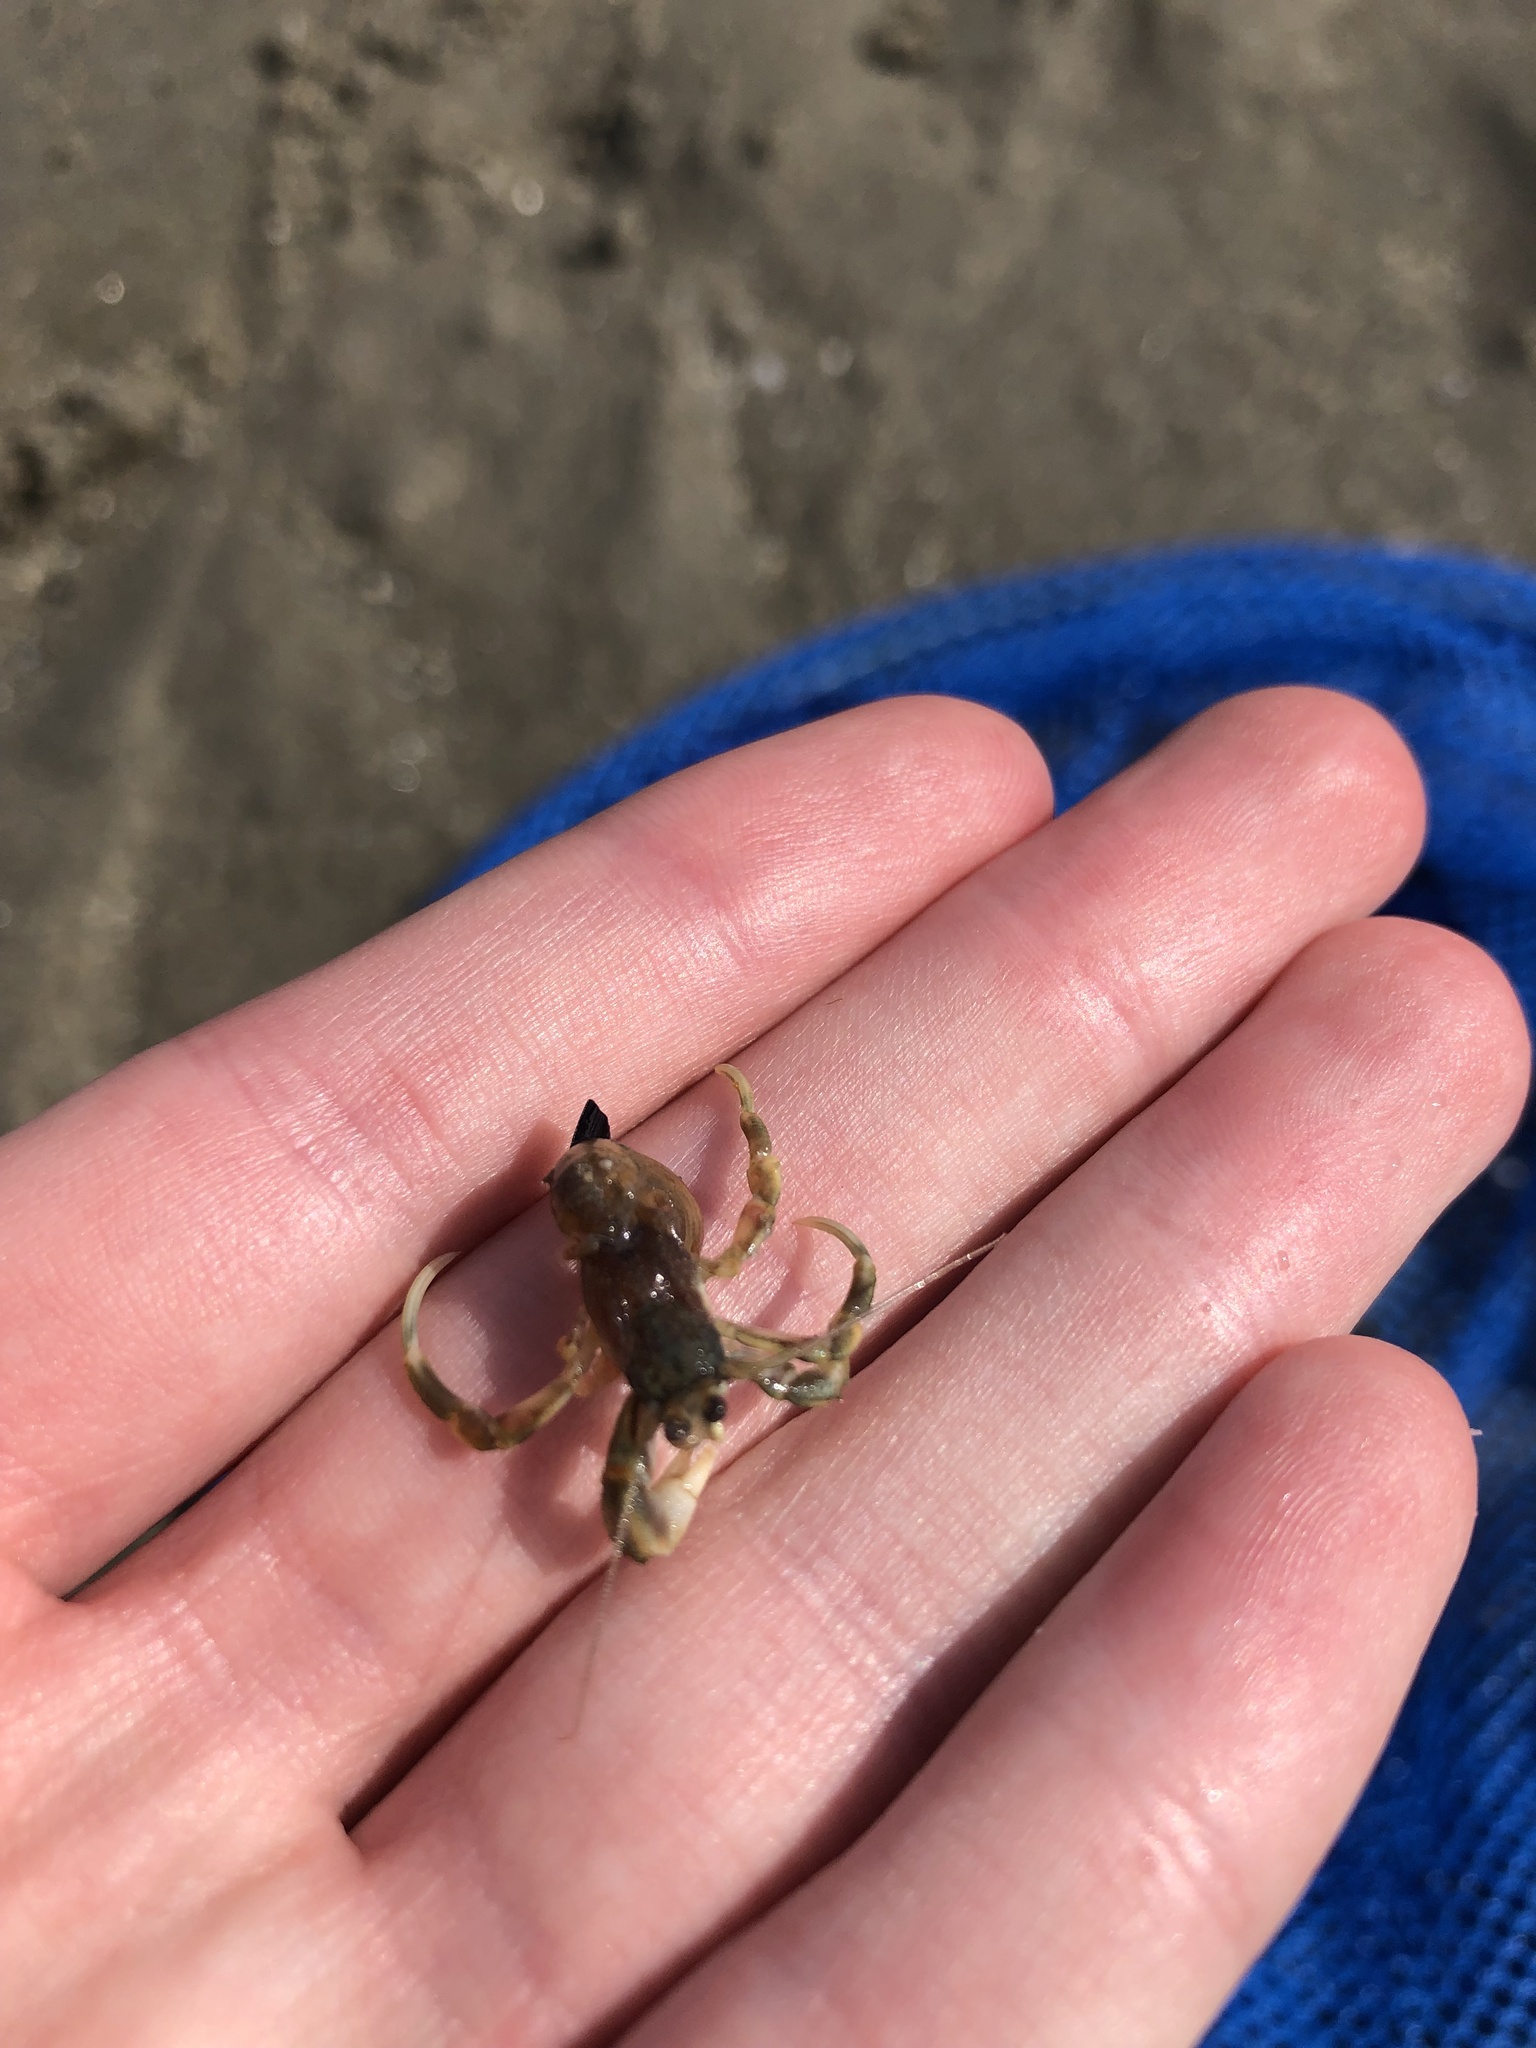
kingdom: Animalia
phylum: Arthropoda
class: Malacostraca
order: Decapoda
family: Paguridae
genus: Pagurus
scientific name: Pagurus longicarpus
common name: Long-armed hermit crab
